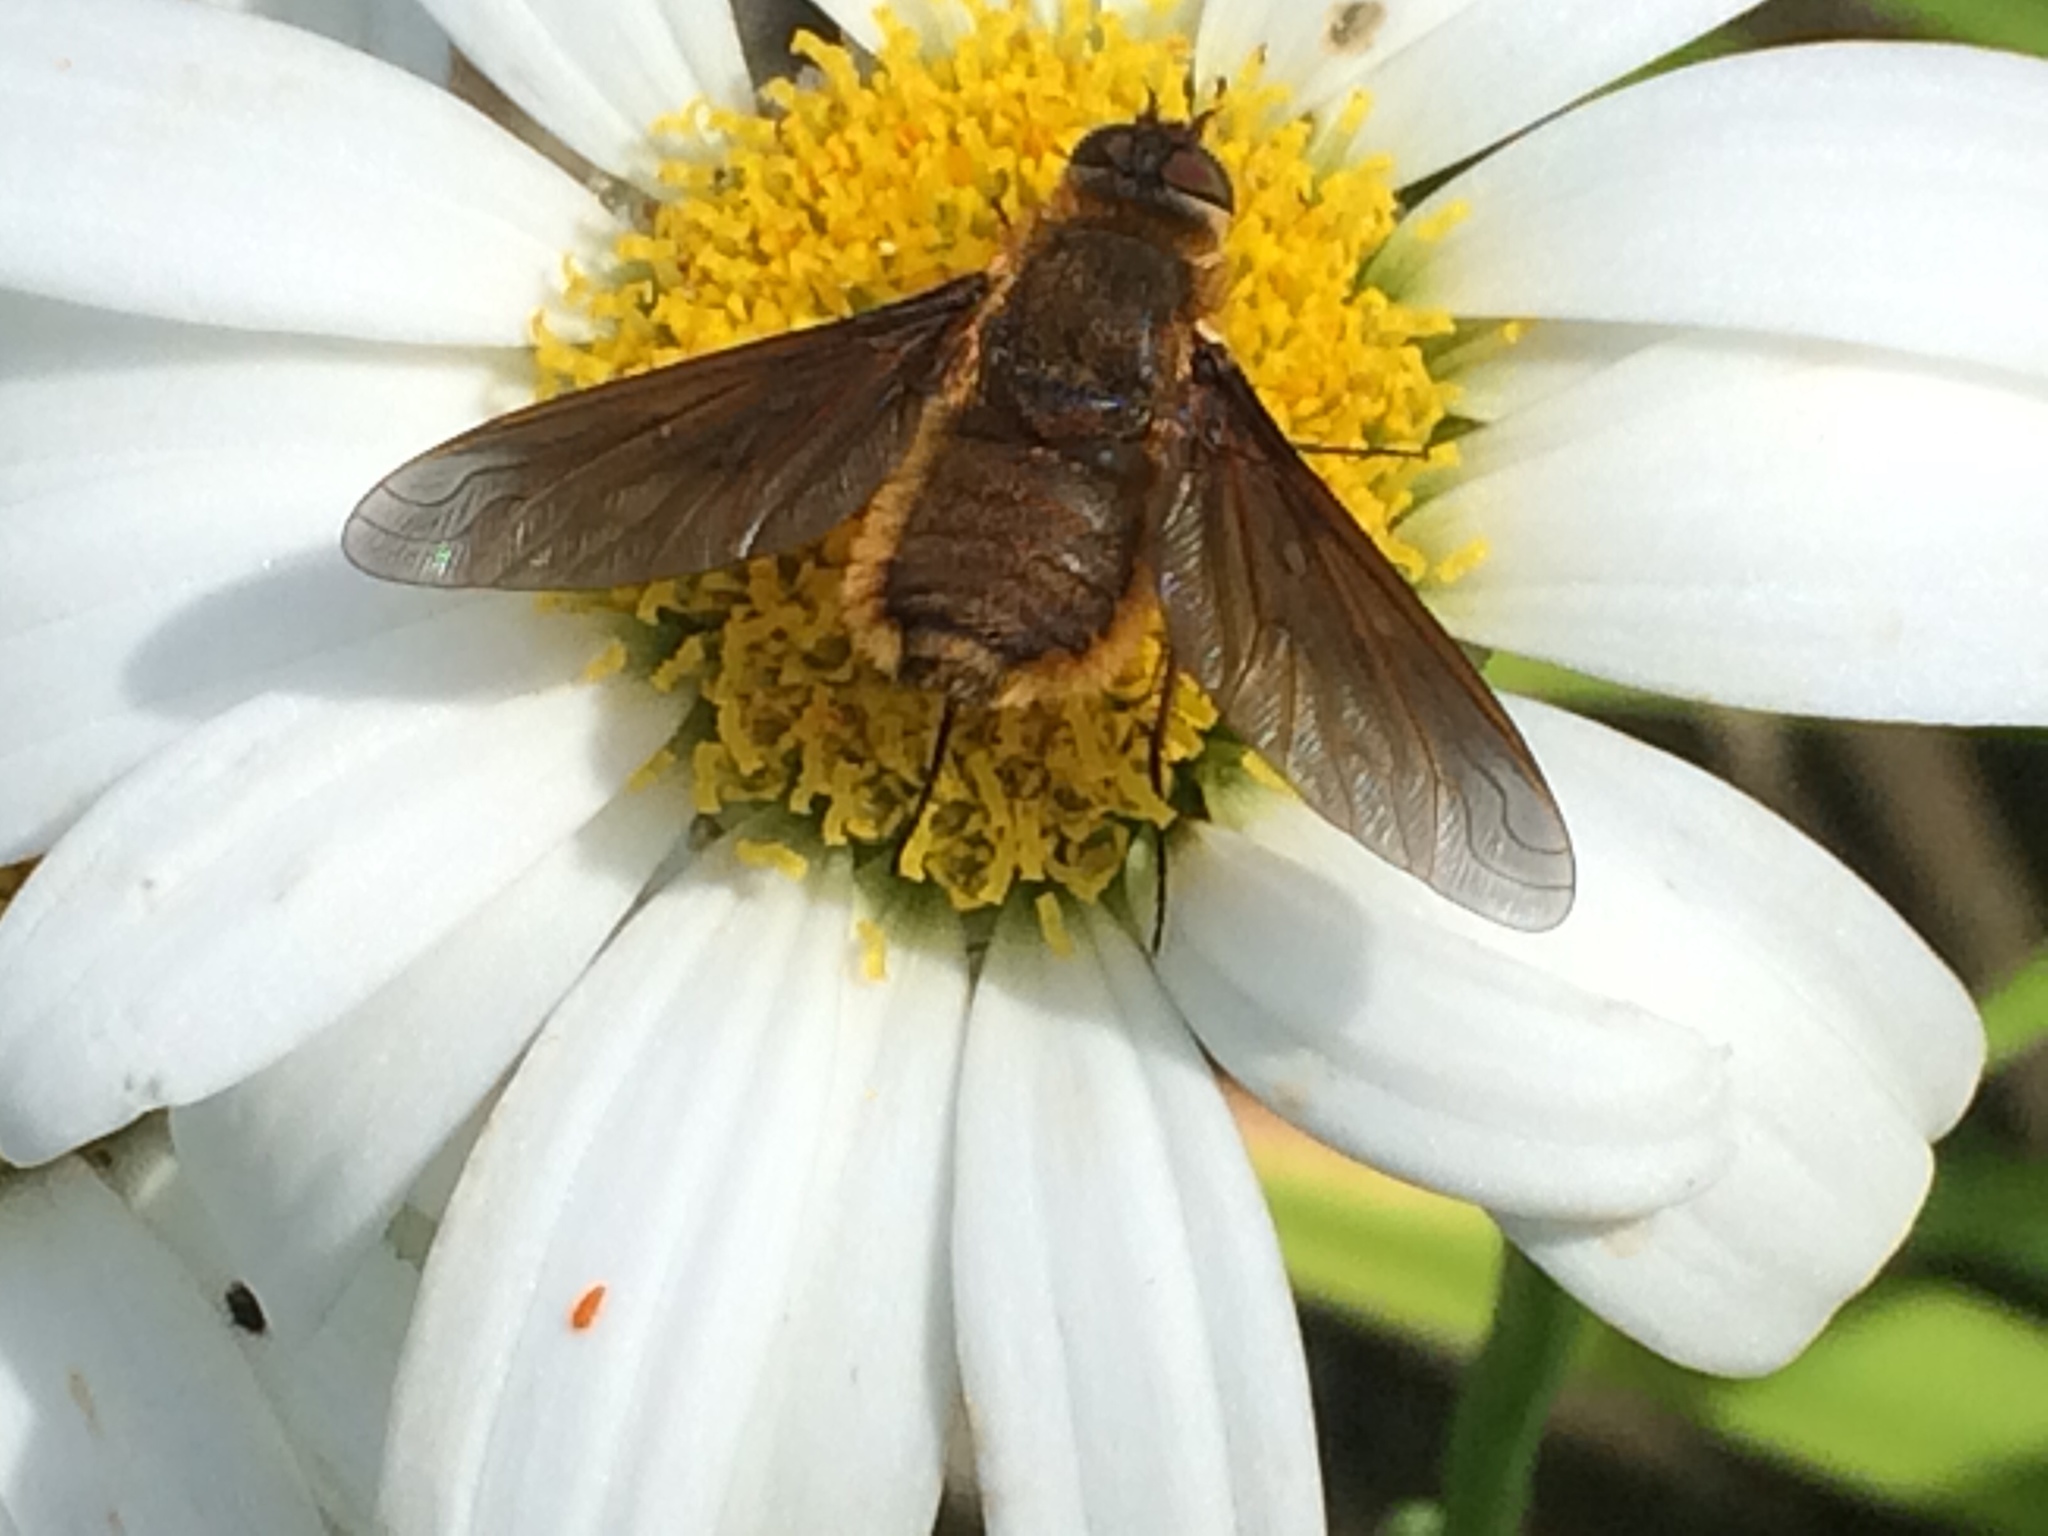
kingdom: Animalia
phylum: Arthropoda
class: Insecta
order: Diptera
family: Bombyliidae
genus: Poecilanthrax
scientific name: Poecilanthrax tegminipennis
